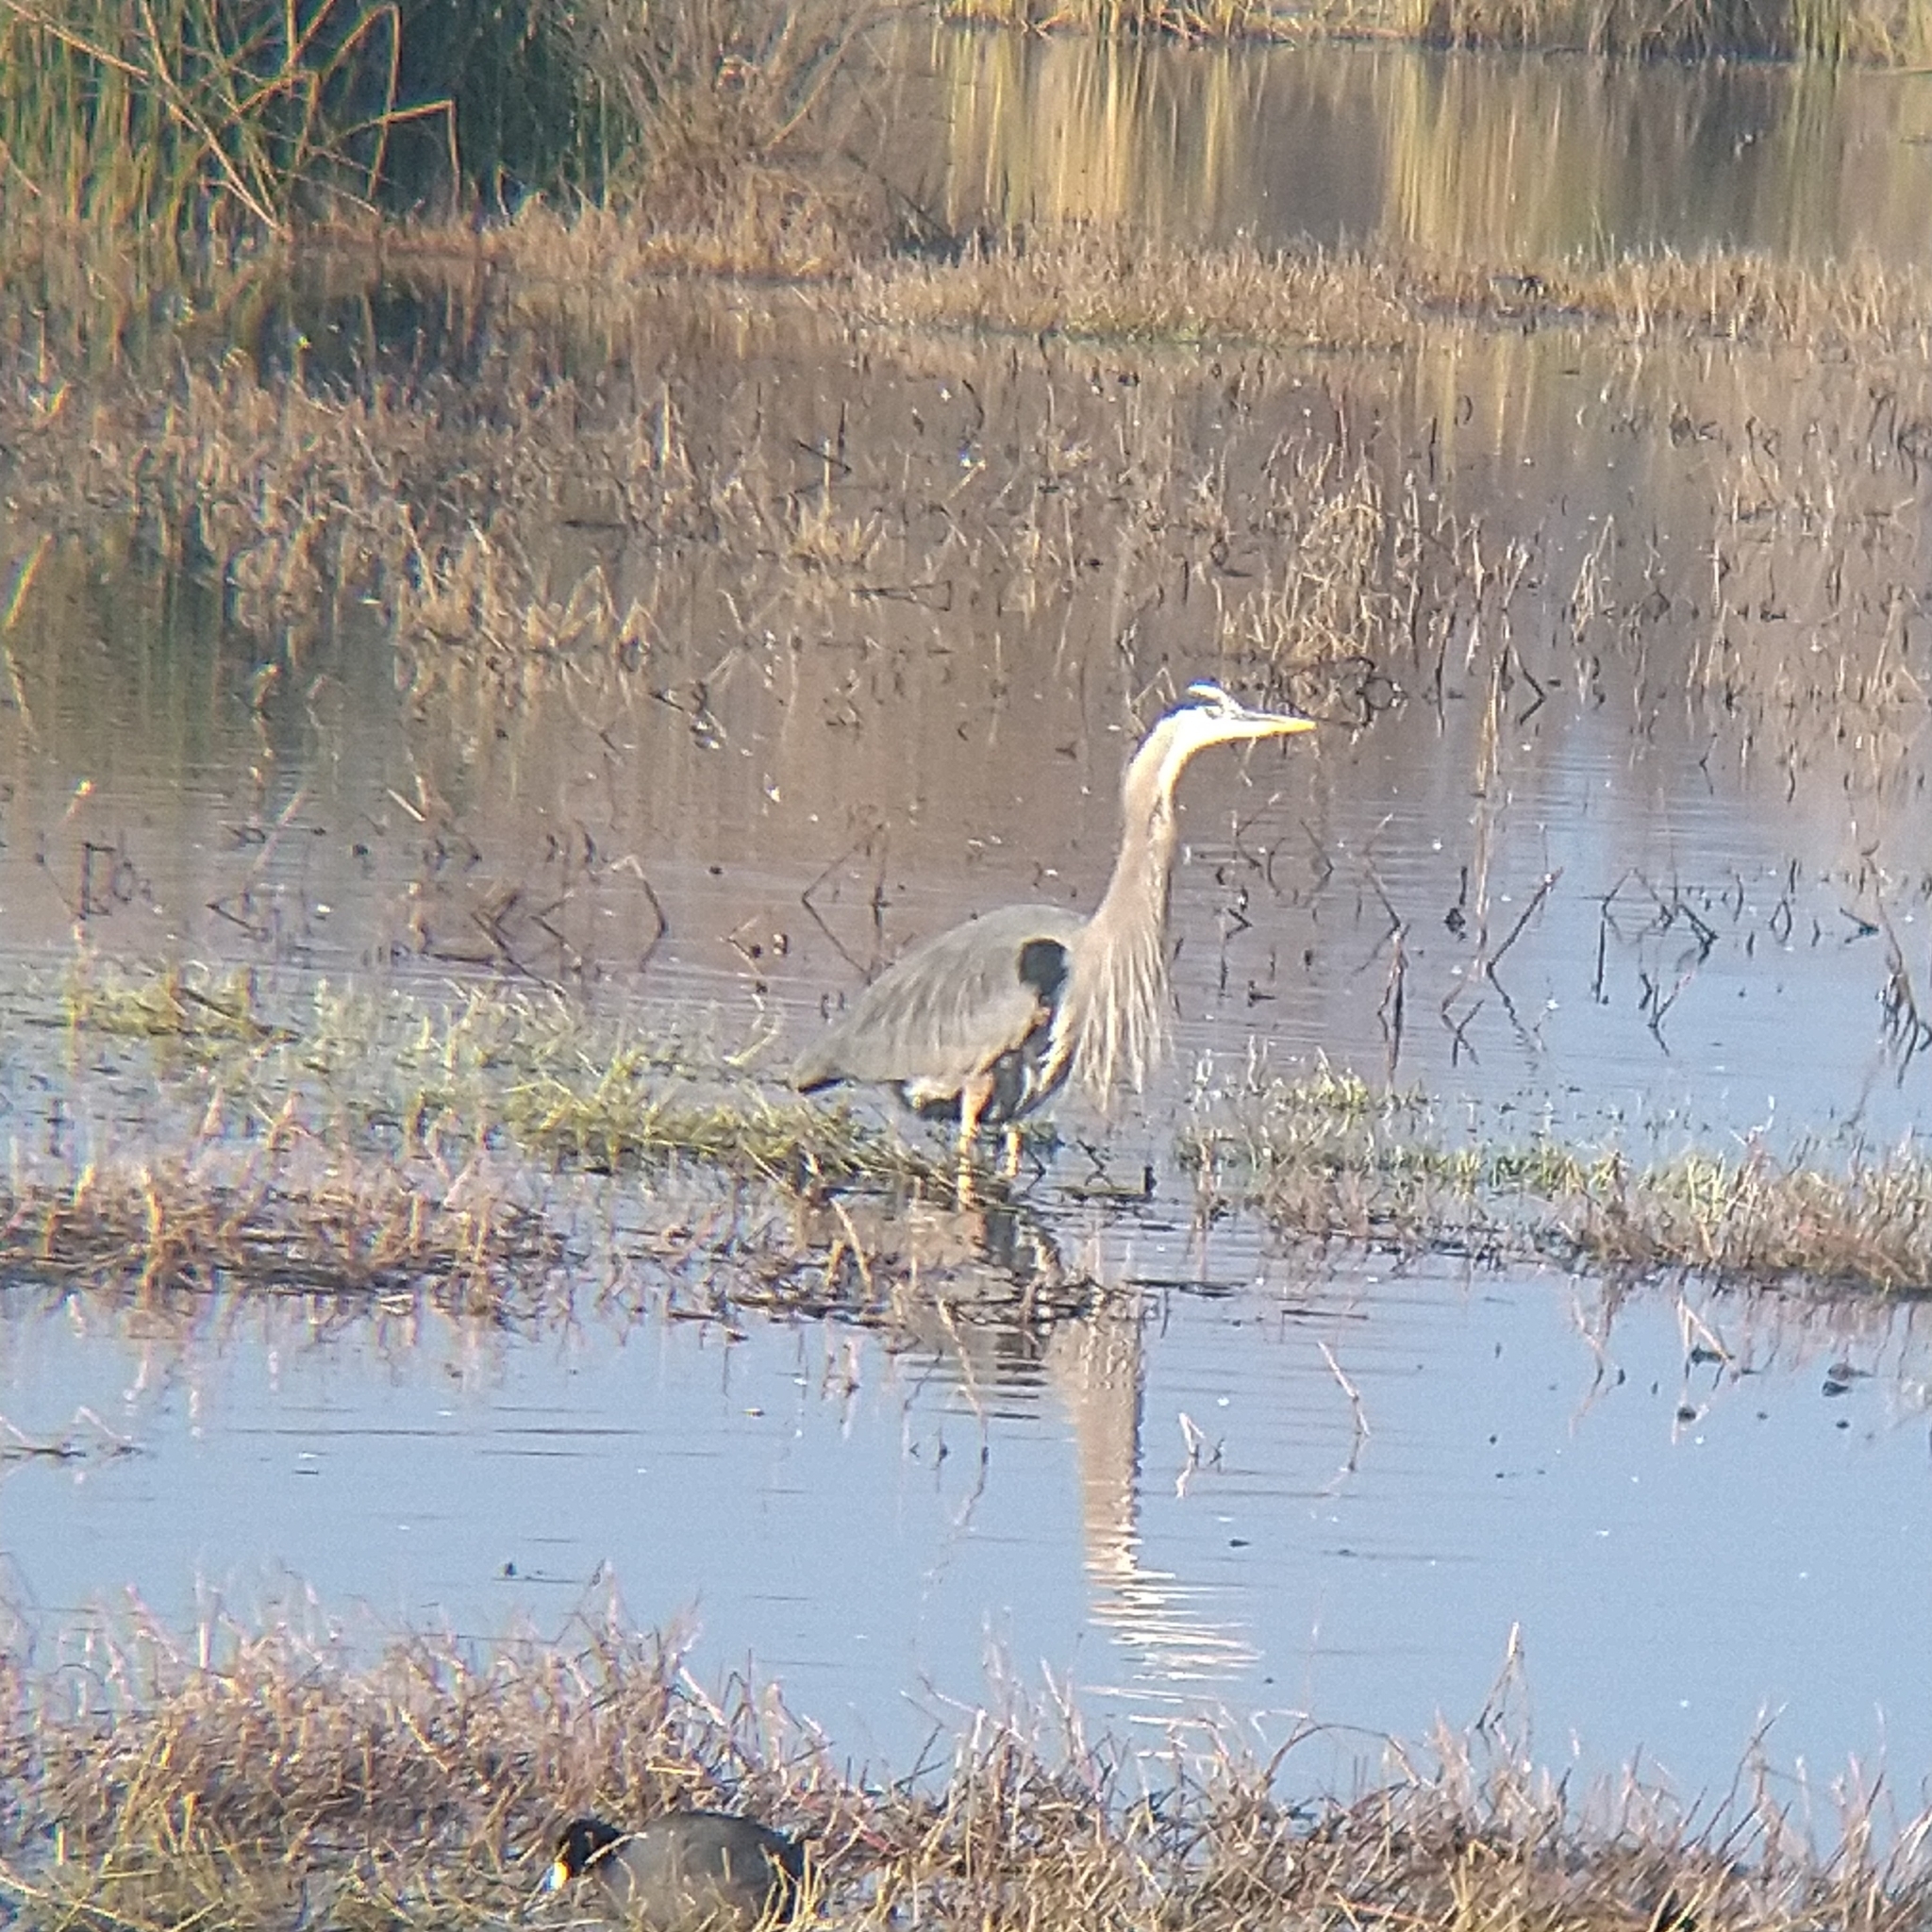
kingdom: Animalia
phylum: Chordata
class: Aves
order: Pelecaniformes
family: Ardeidae
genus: Ardea
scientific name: Ardea herodias
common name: Great blue heron
